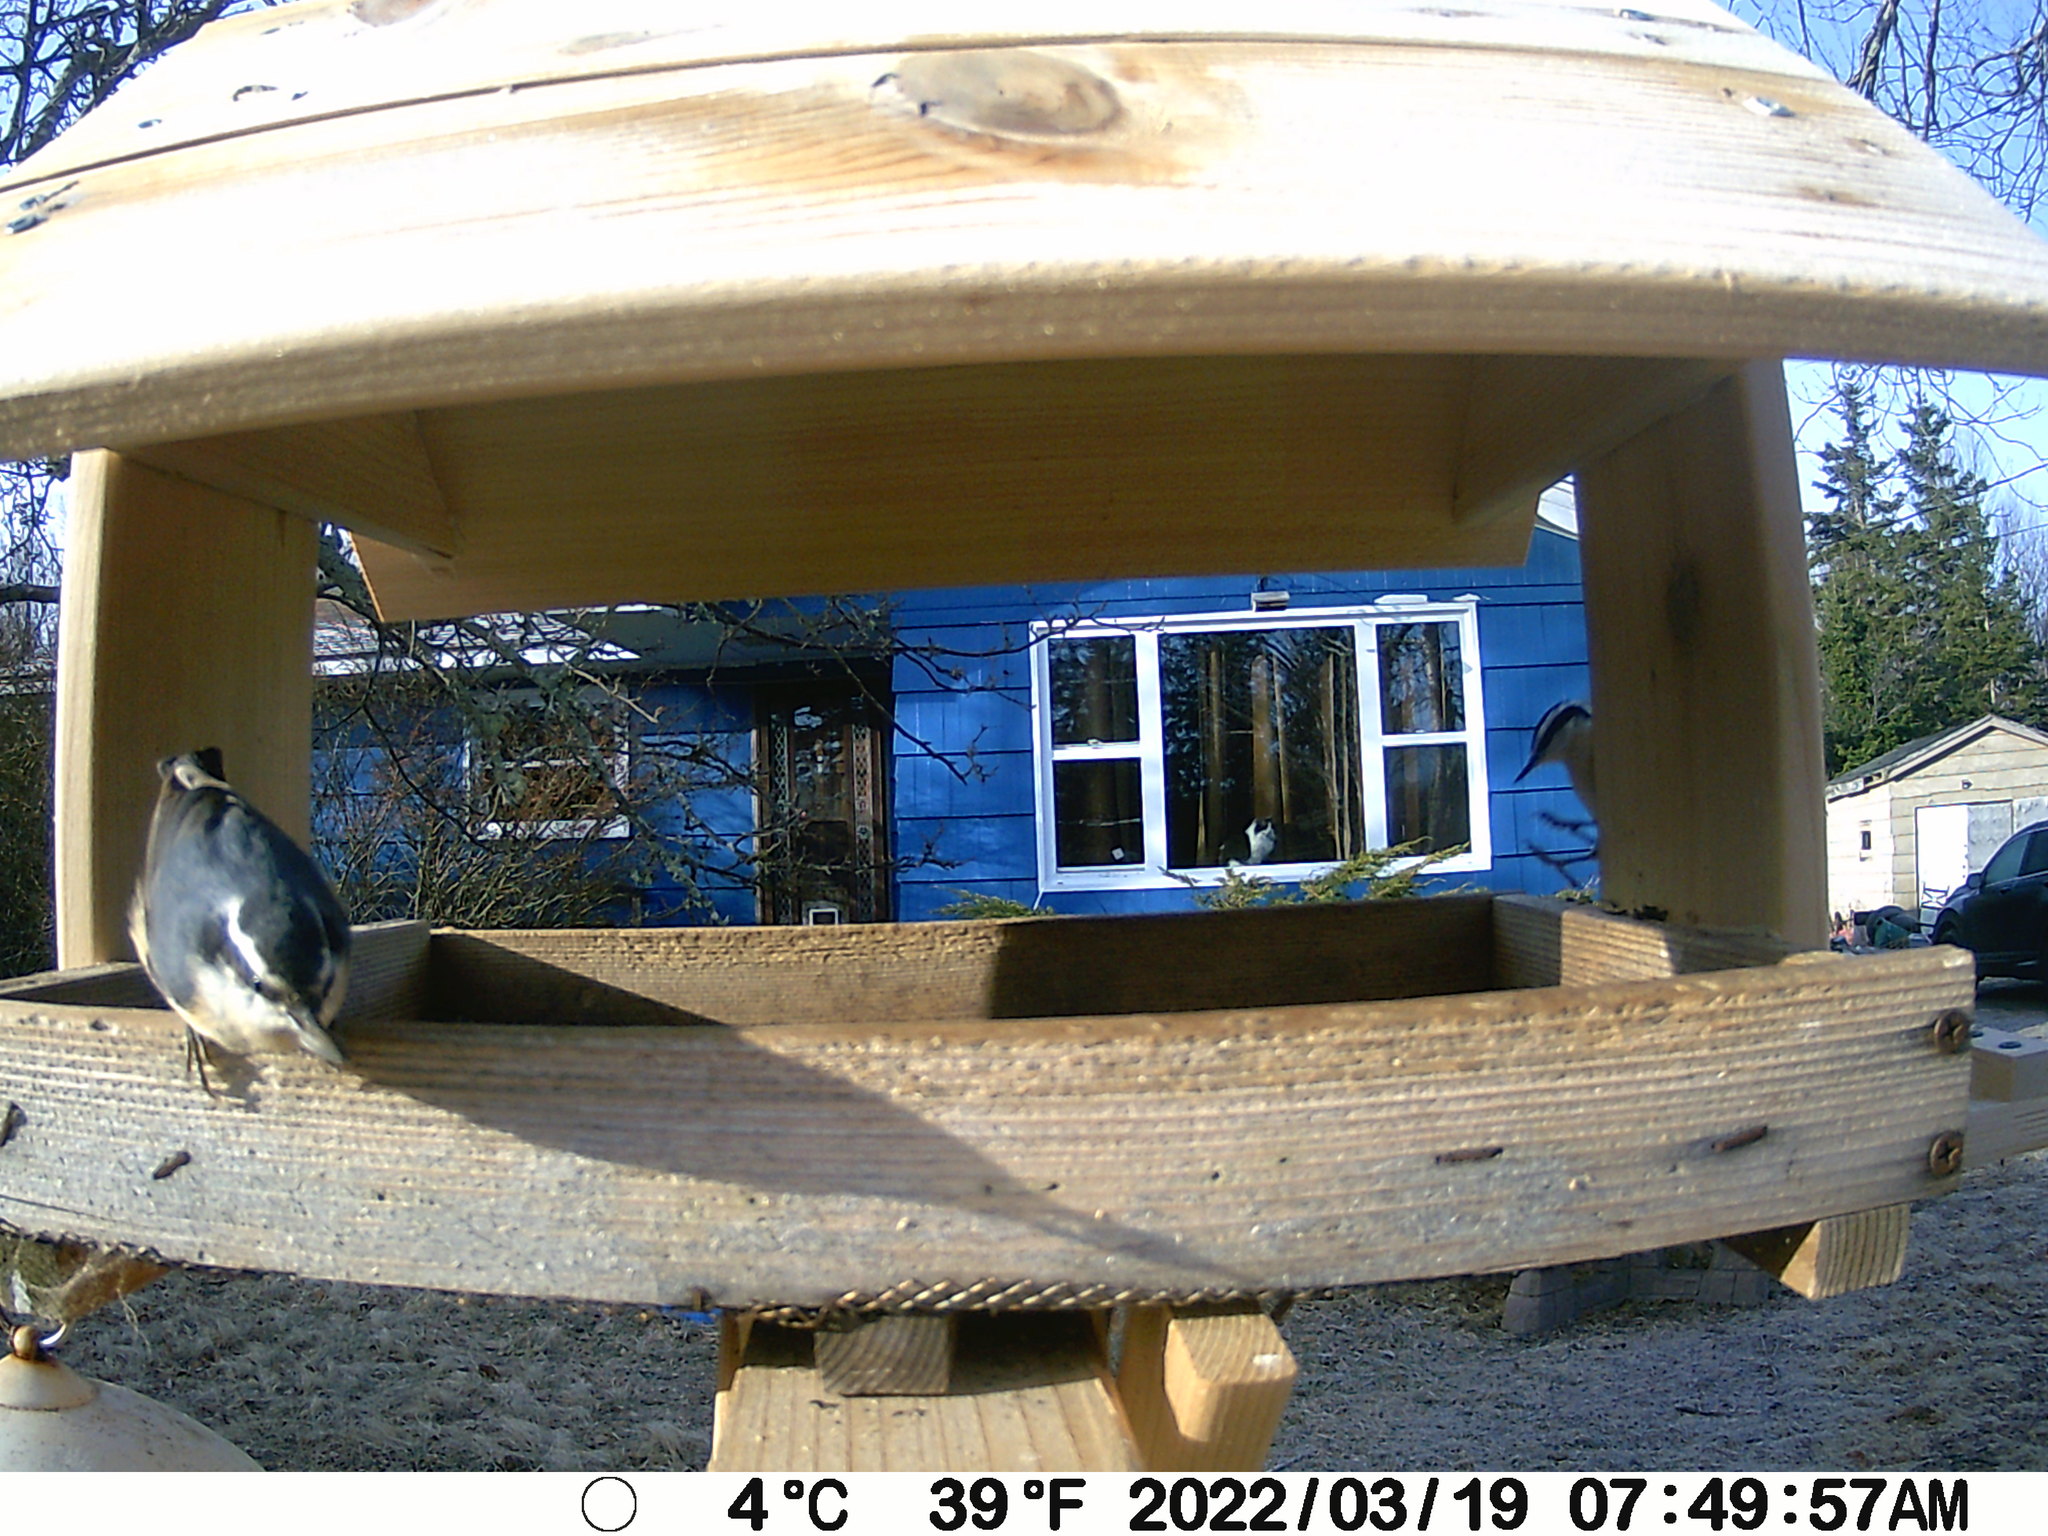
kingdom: Animalia
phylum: Chordata
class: Aves
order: Passeriformes
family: Sittidae
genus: Sitta
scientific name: Sitta canadensis
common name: Red-breasted nuthatch
